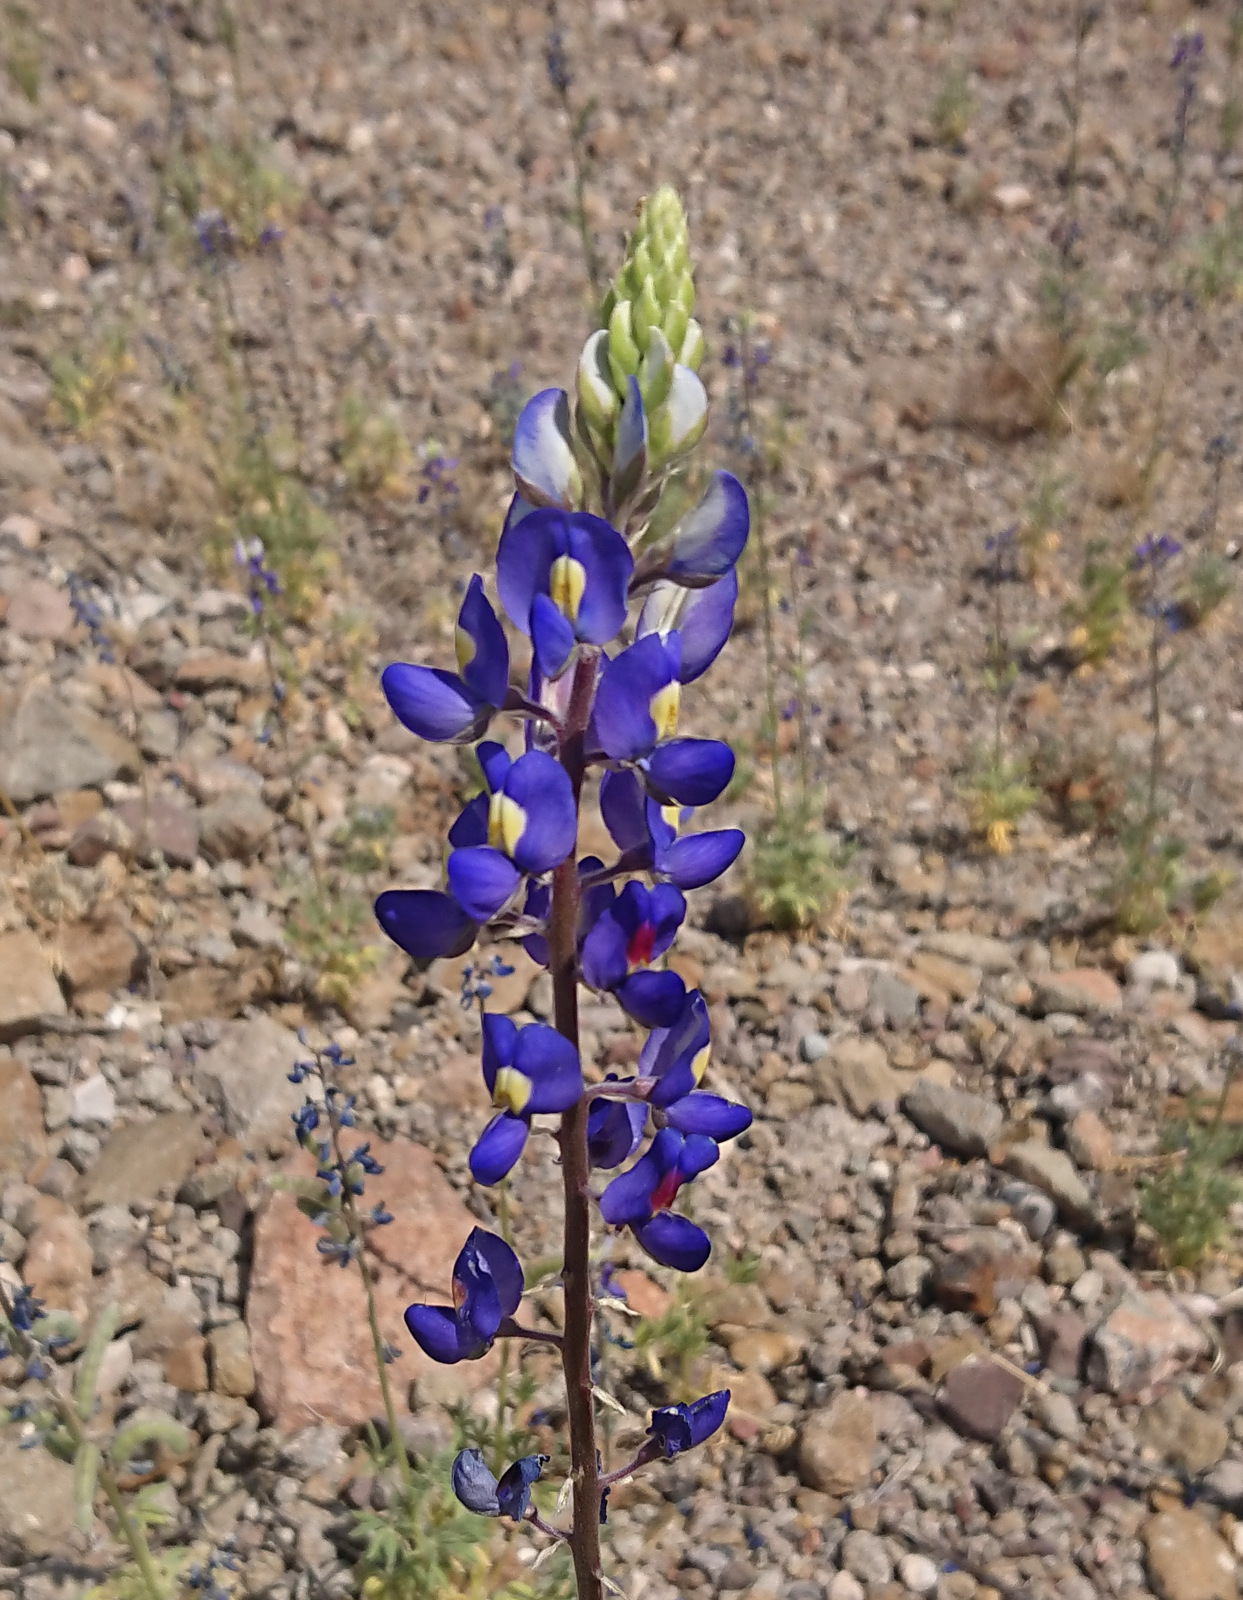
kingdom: Plantae
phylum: Tracheophyta
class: Magnoliopsida
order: Fabales
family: Fabaceae
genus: Lupinus
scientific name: Lupinus havardii
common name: Chisos bluebonnet
